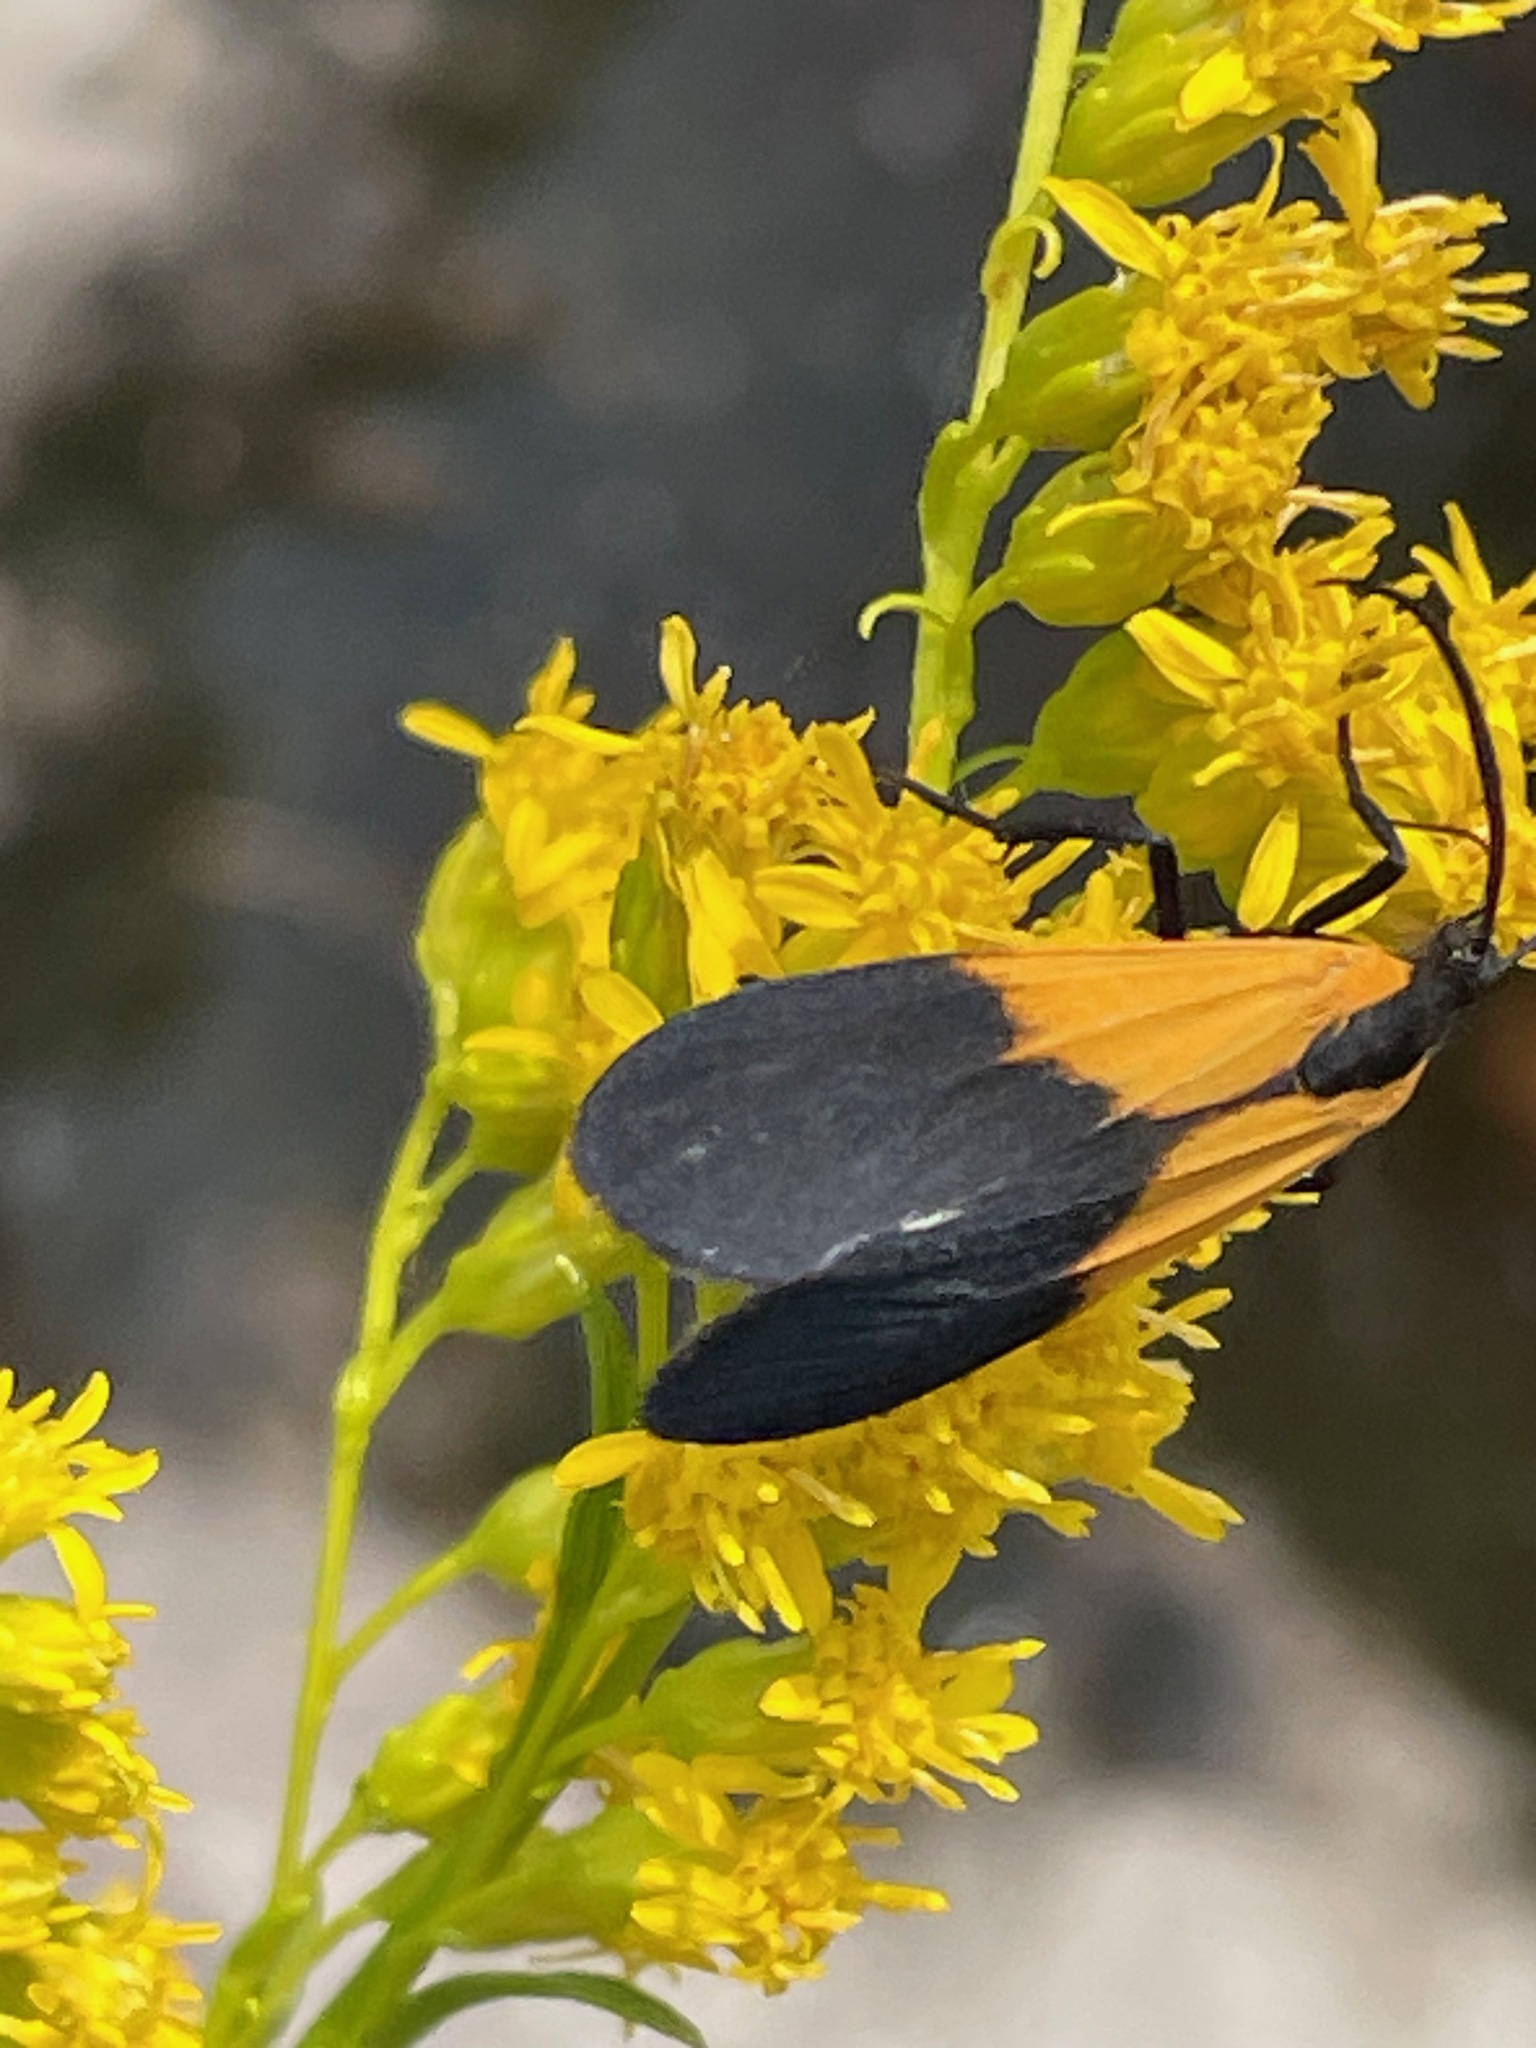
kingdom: Animalia
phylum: Arthropoda
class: Insecta
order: Lepidoptera
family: Erebidae
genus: Lycomorpha
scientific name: Lycomorpha pholus
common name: Black-and-yellow lichen moth
